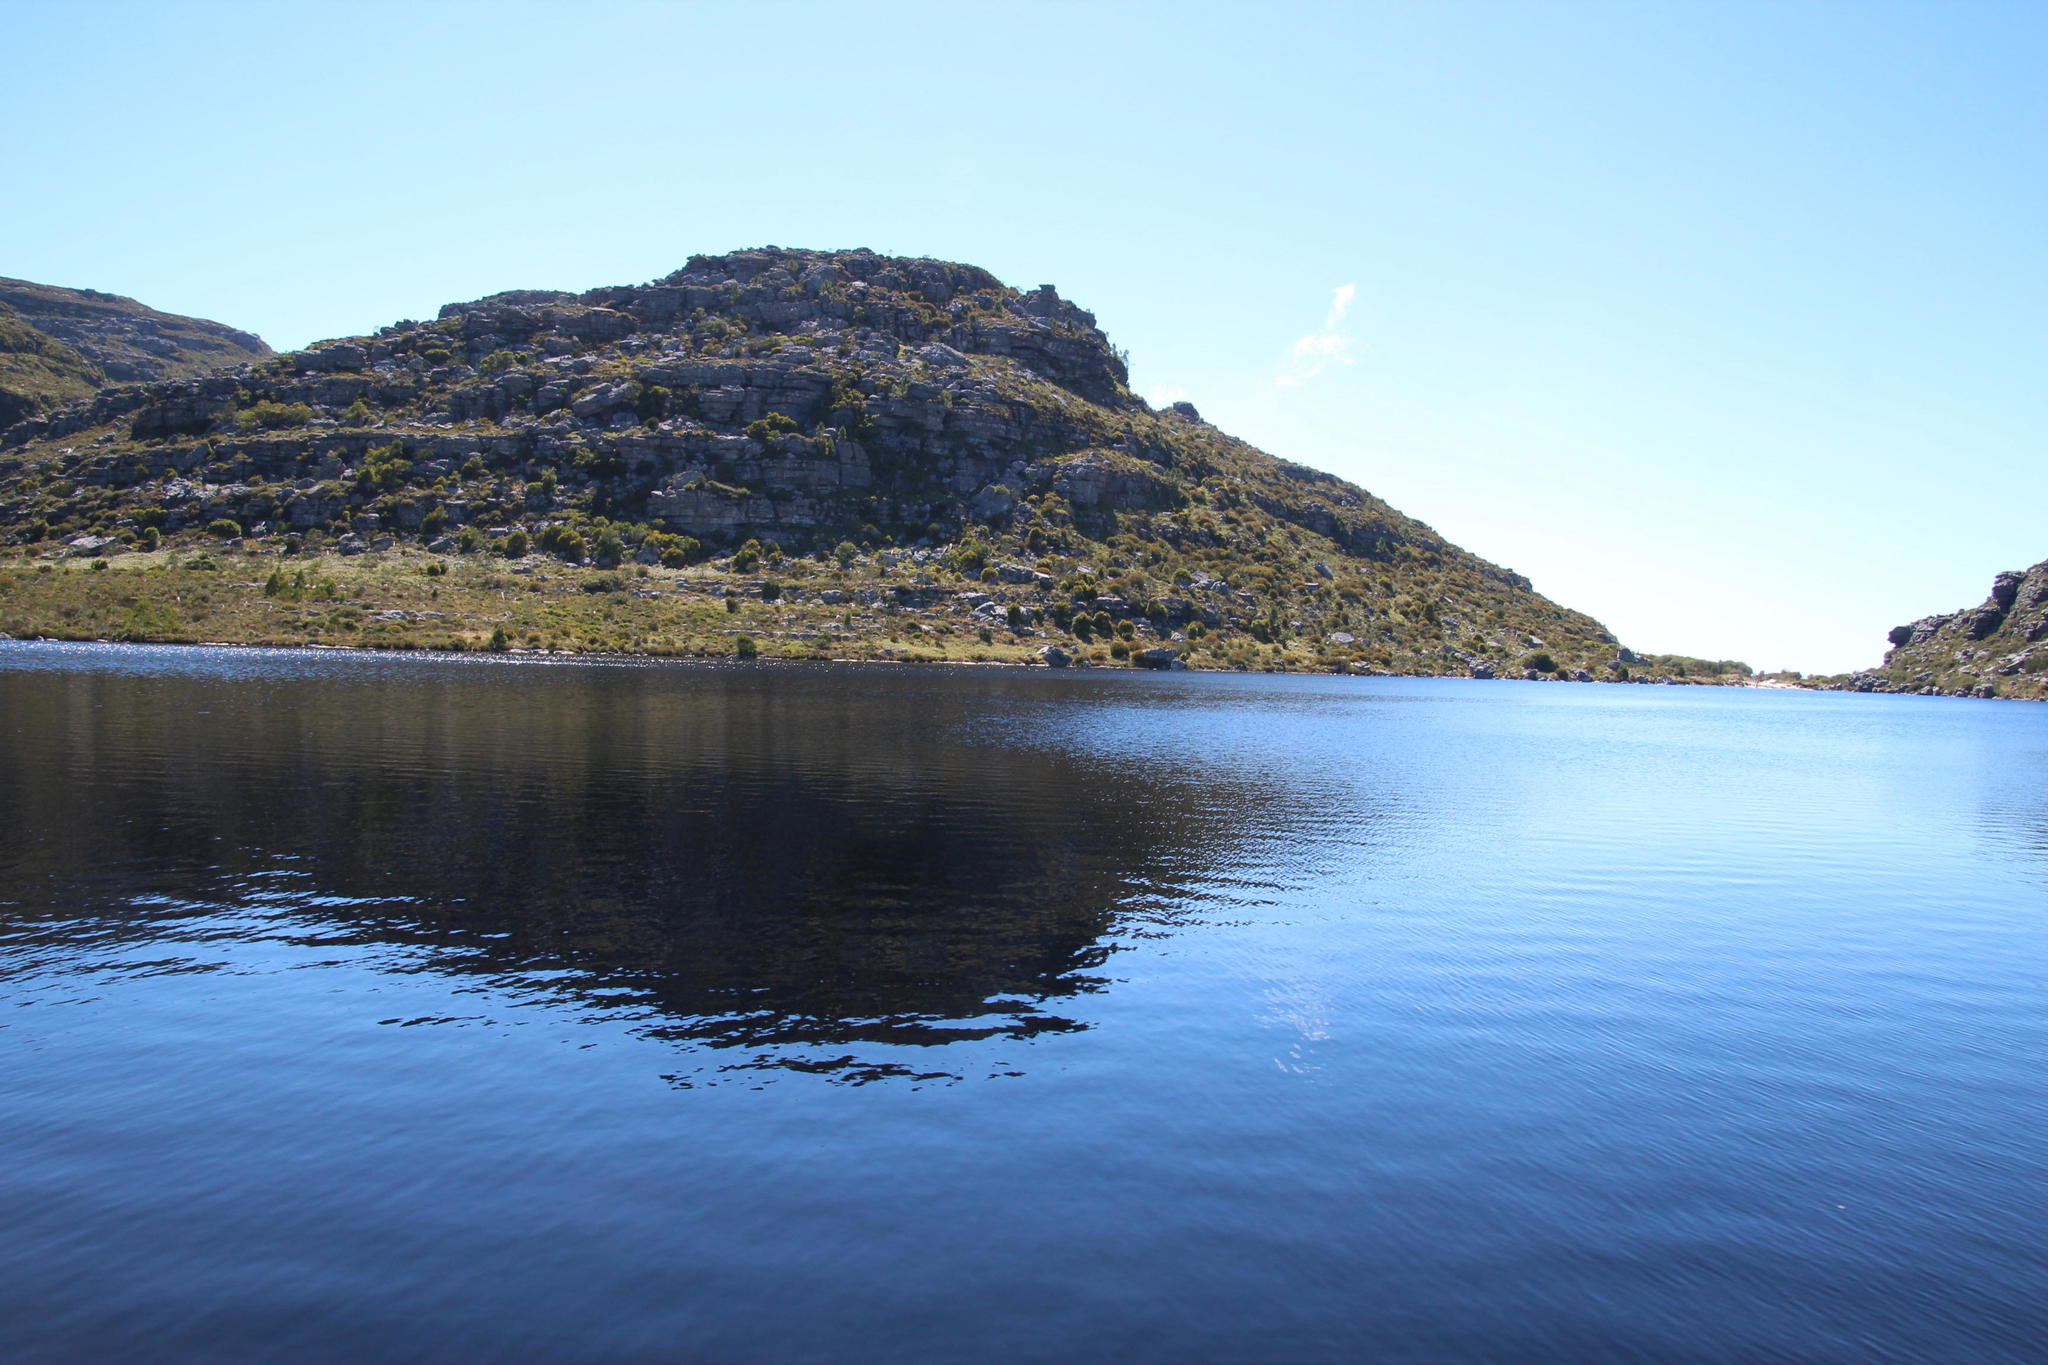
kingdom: Plantae
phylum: Tracheophyta
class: Pinopsida
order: Pinales
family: Pinaceae
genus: Pinus
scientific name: Pinus radiata
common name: Monterey pine
